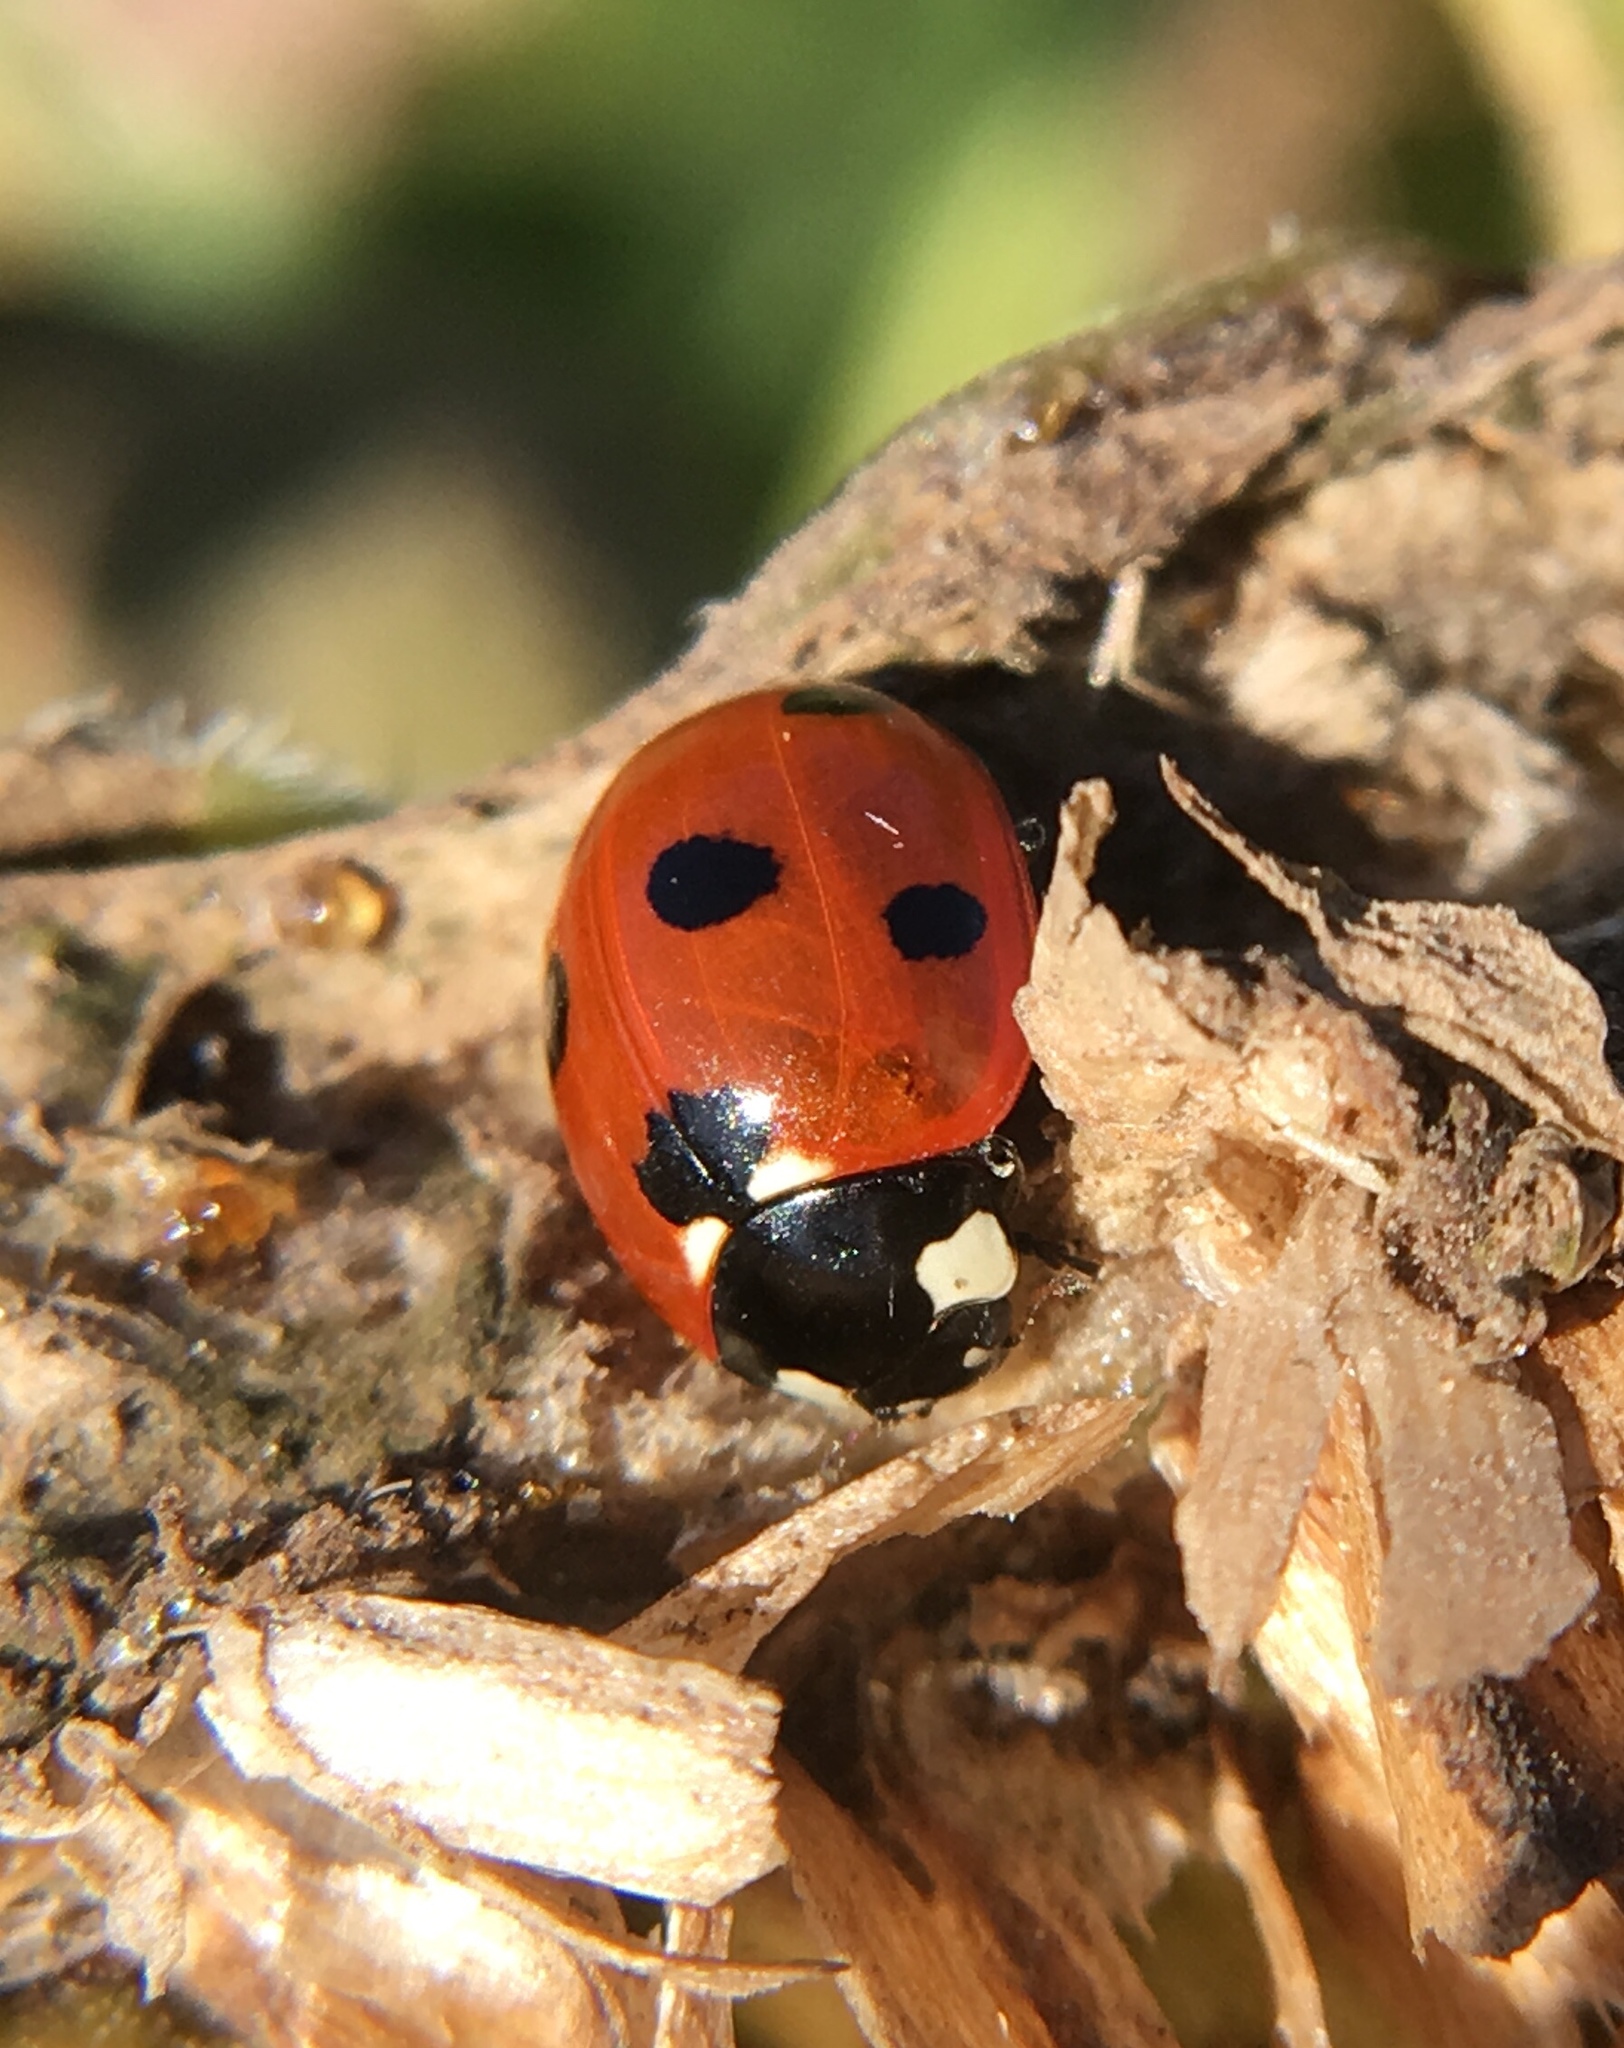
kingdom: Animalia
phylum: Arthropoda
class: Insecta
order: Coleoptera
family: Coccinellidae
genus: Coccinella
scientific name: Coccinella septempunctata
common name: Sevenspotted lady beetle
